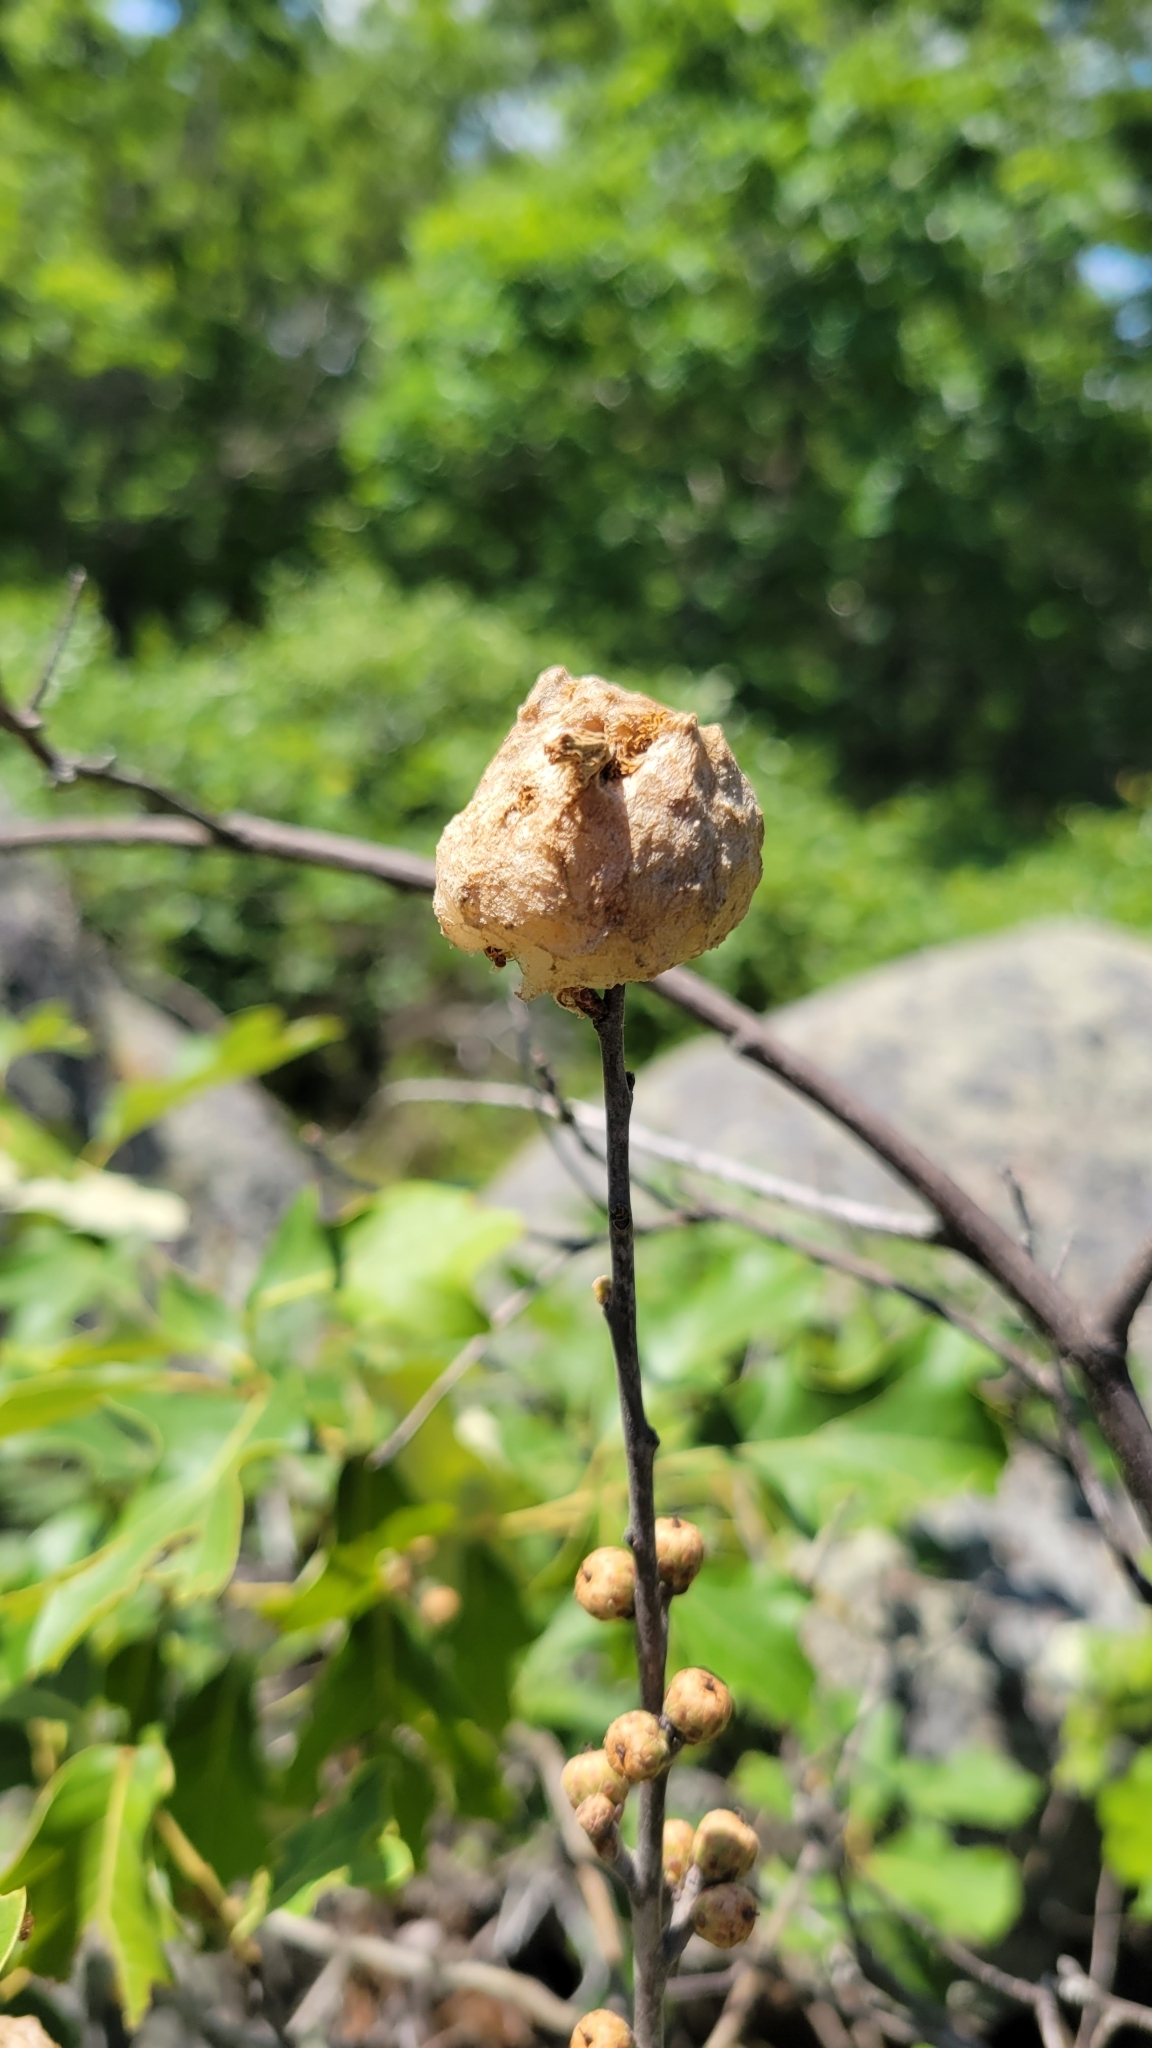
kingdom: Animalia
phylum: Arthropoda
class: Insecta
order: Hymenoptera
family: Cynipidae
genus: Callirhytis
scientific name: Callirhytis
